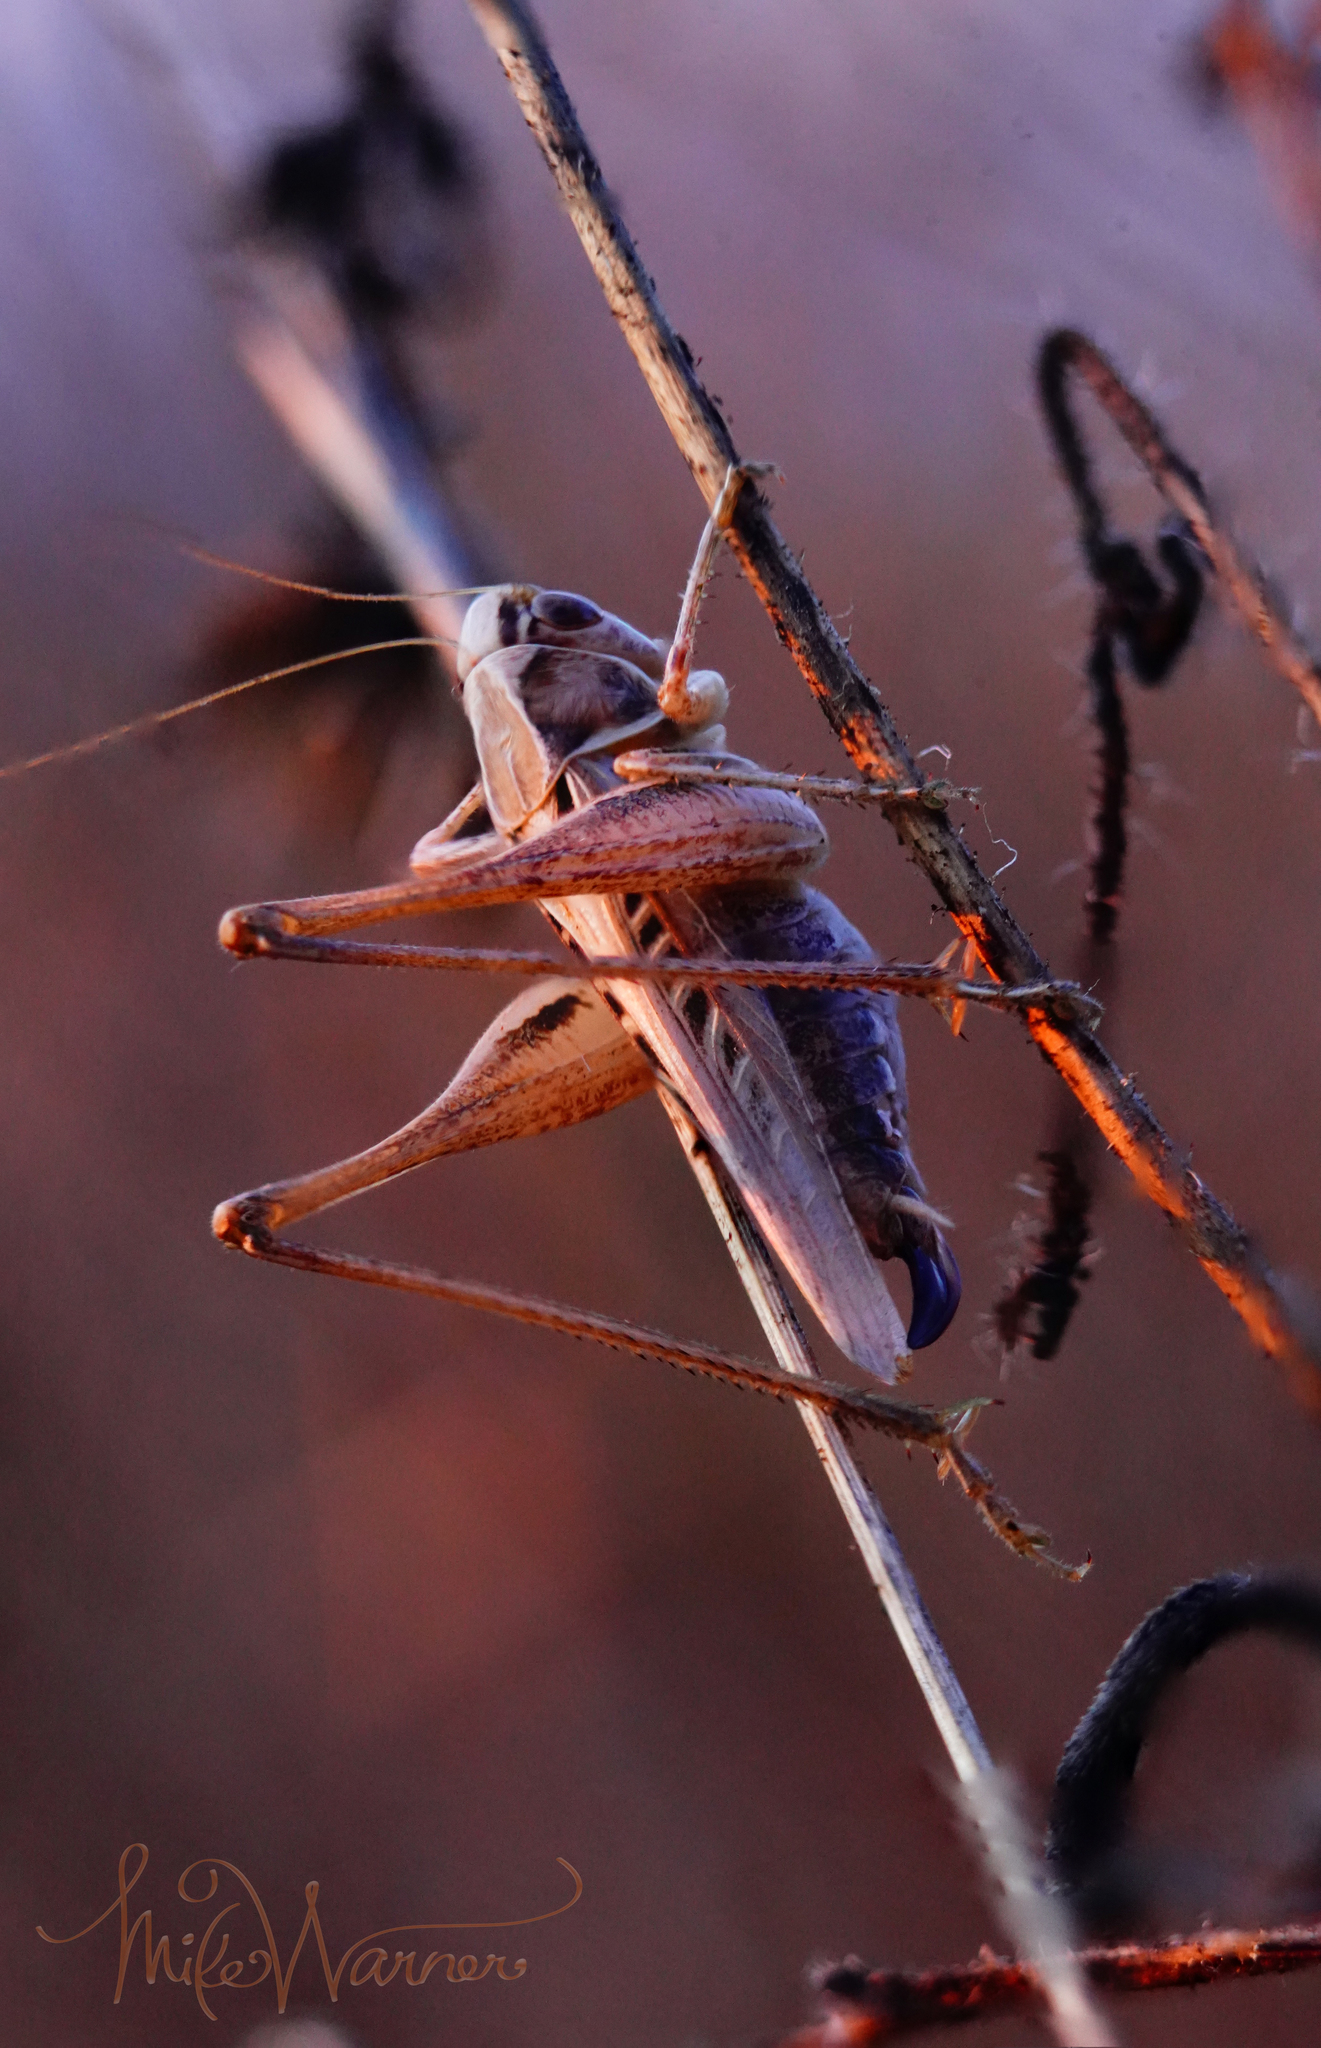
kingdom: Animalia
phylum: Arthropoda
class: Insecta
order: Orthoptera
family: Tettigoniidae
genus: Tessellana
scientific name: Tessellana tessellata
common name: Grasshopper
